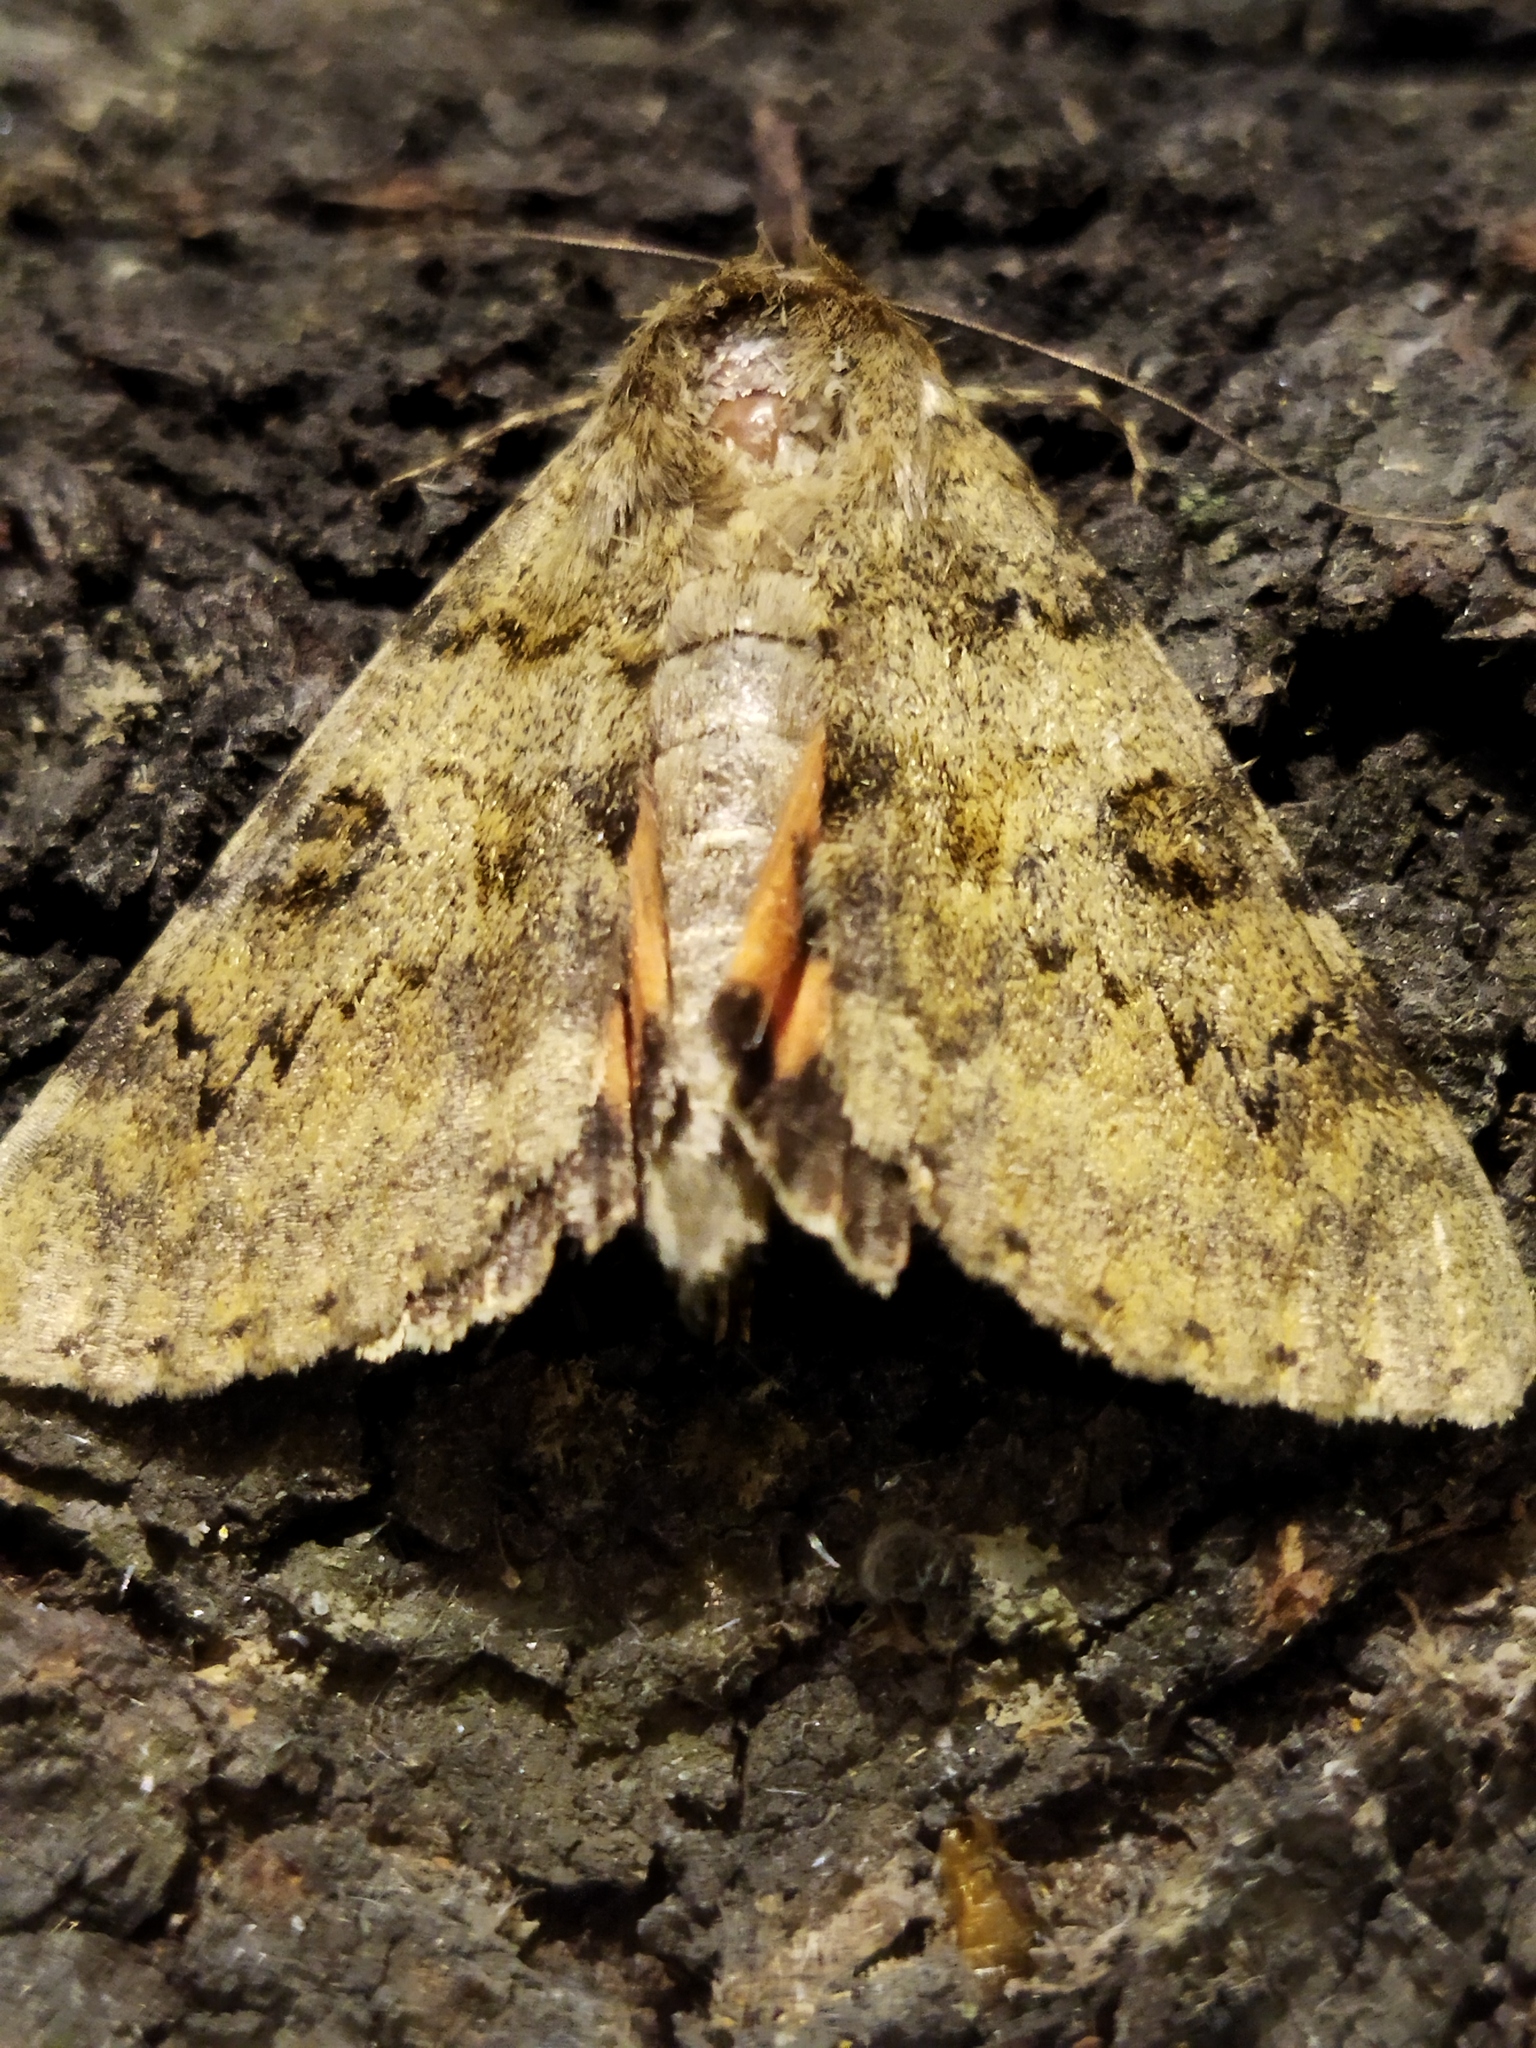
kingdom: Animalia
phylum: Arthropoda
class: Insecta
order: Lepidoptera
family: Erebidae
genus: Catocala
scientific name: Catocala puerpera
